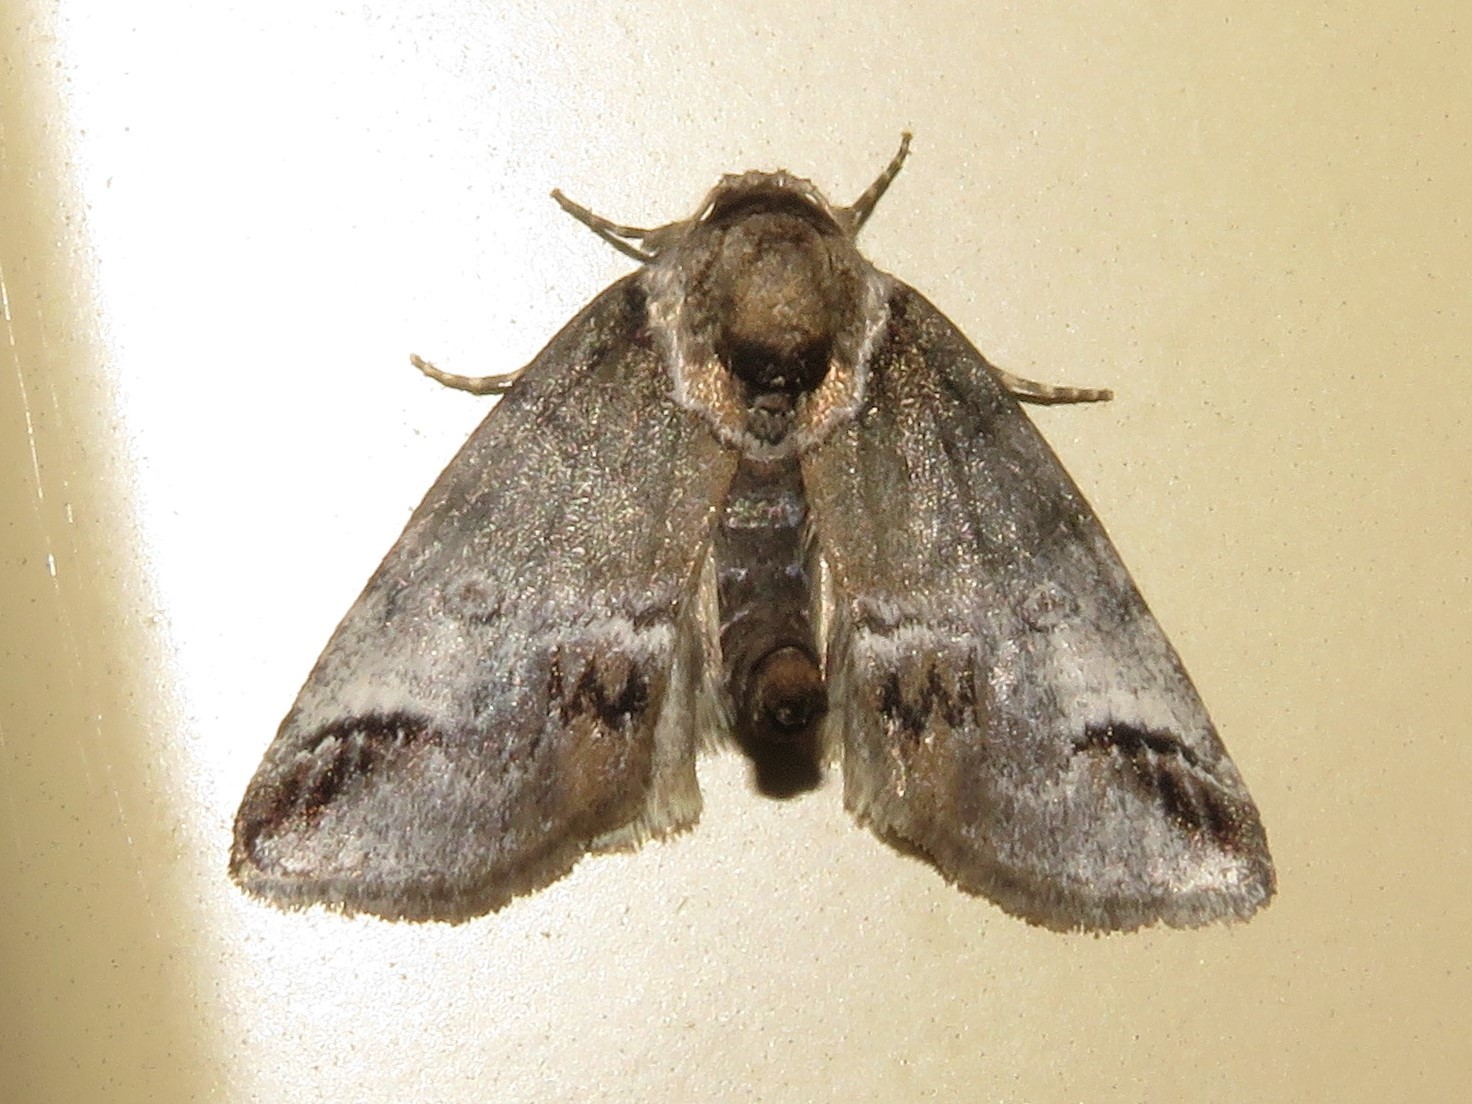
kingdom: Animalia
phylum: Arthropoda
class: Insecta
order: Lepidoptera
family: Nolidae
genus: Baileya
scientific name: Baileya australis
